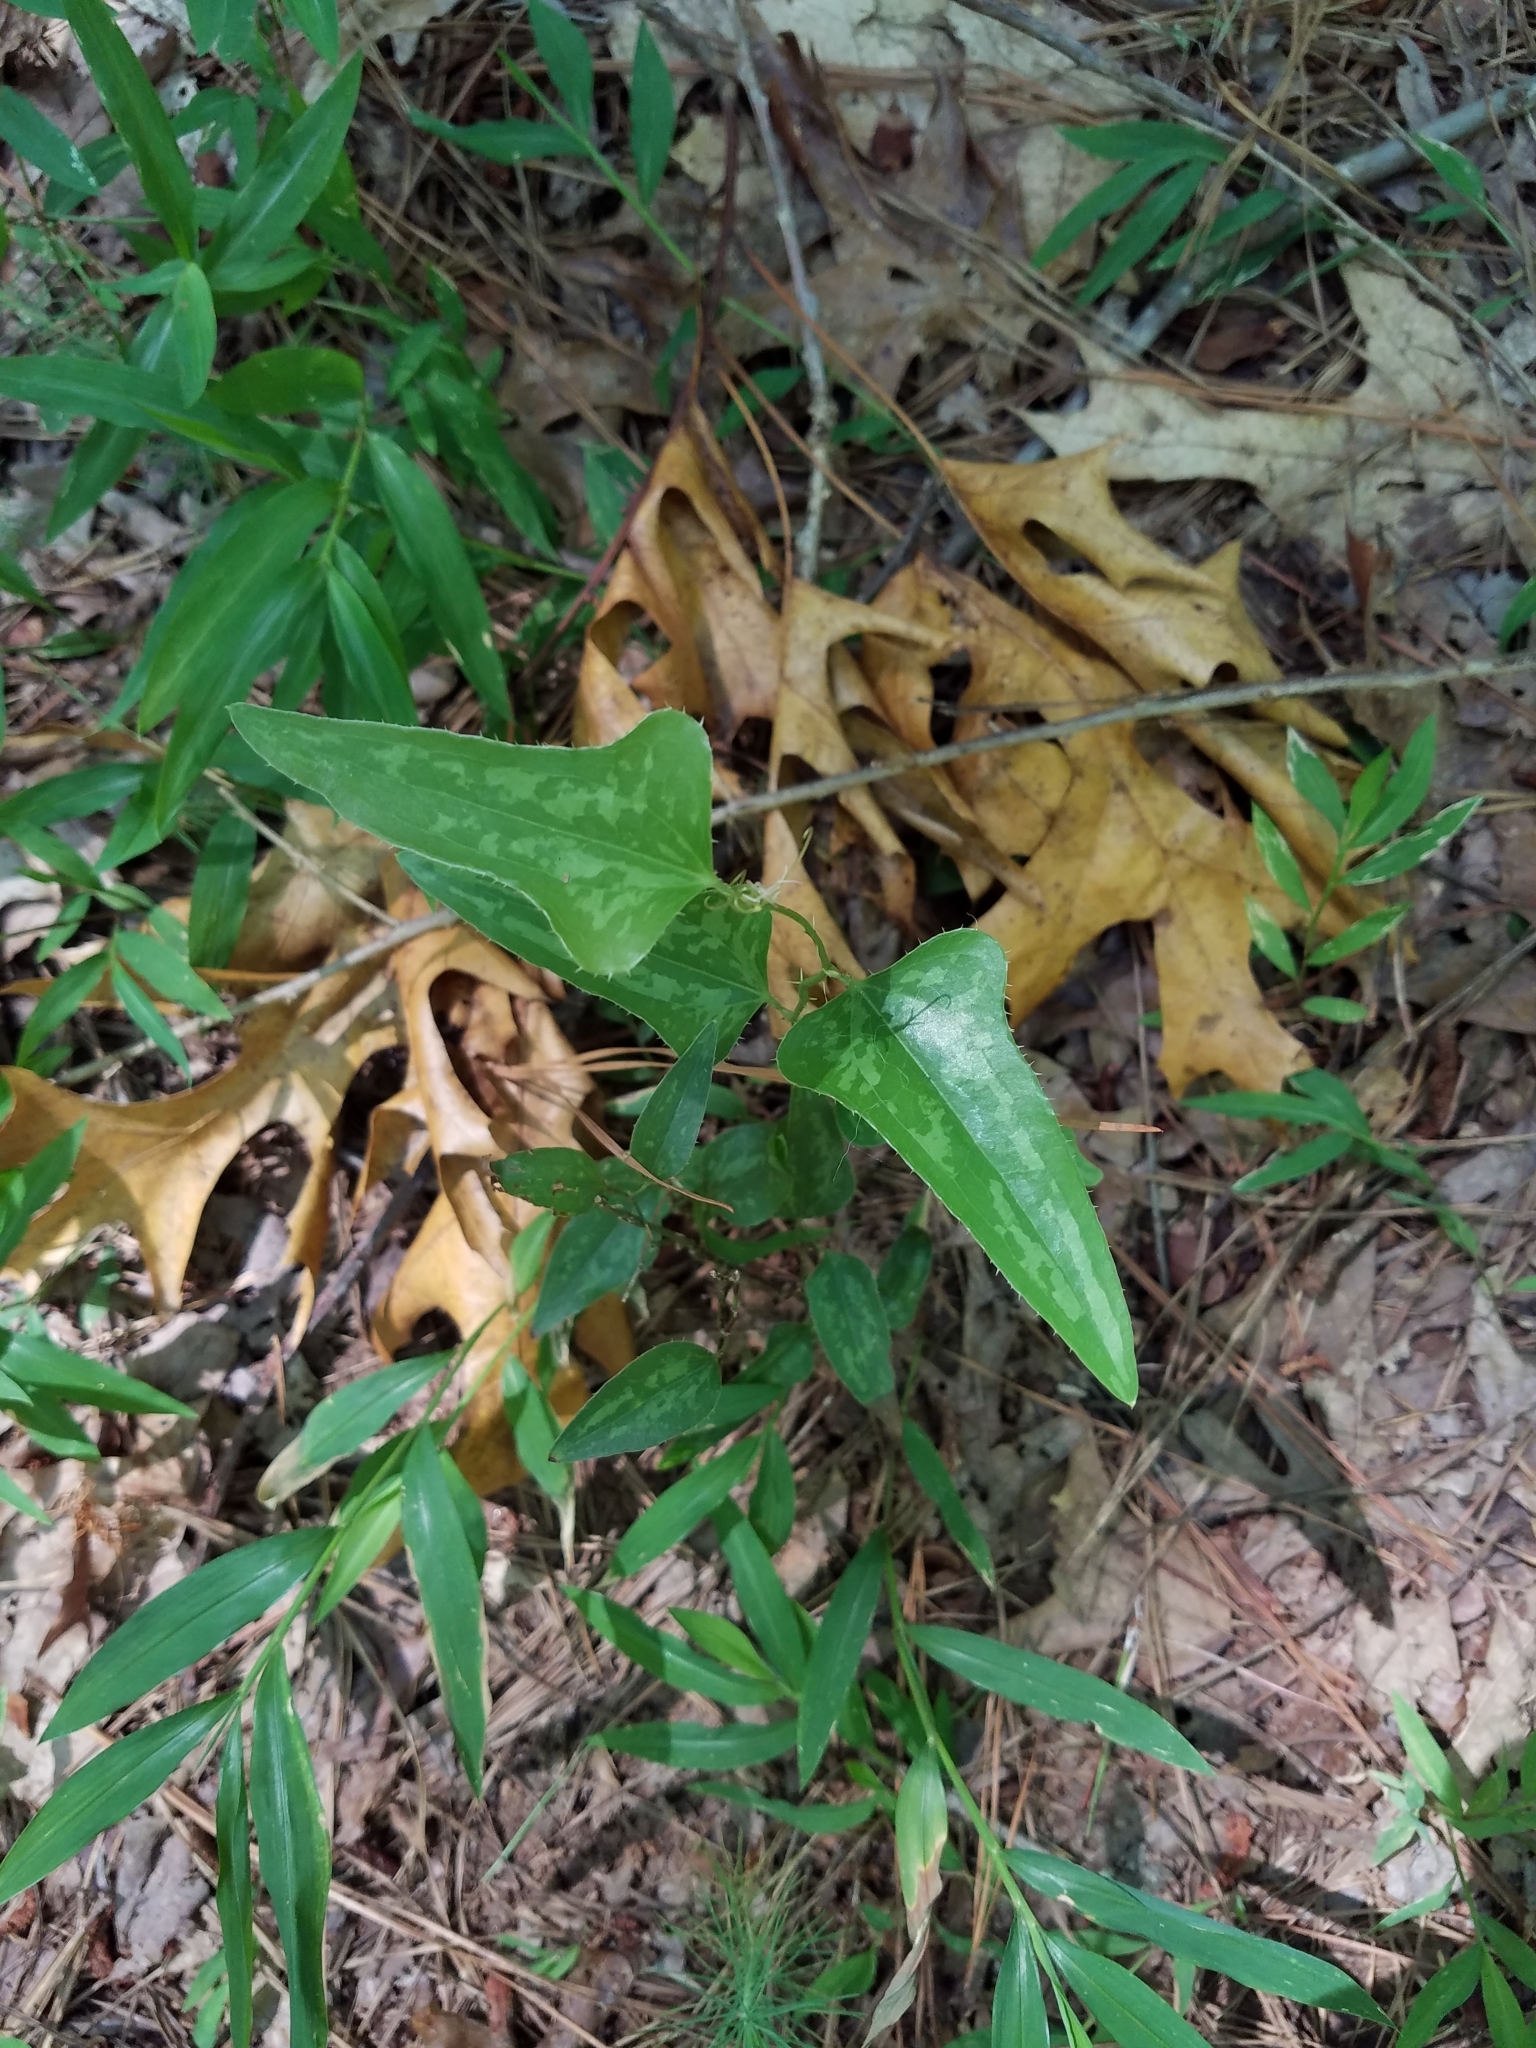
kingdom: Plantae
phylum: Tracheophyta
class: Liliopsida
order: Liliales
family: Smilacaceae
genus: Smilax
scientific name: Smilax bona-nox
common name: Catbrier
